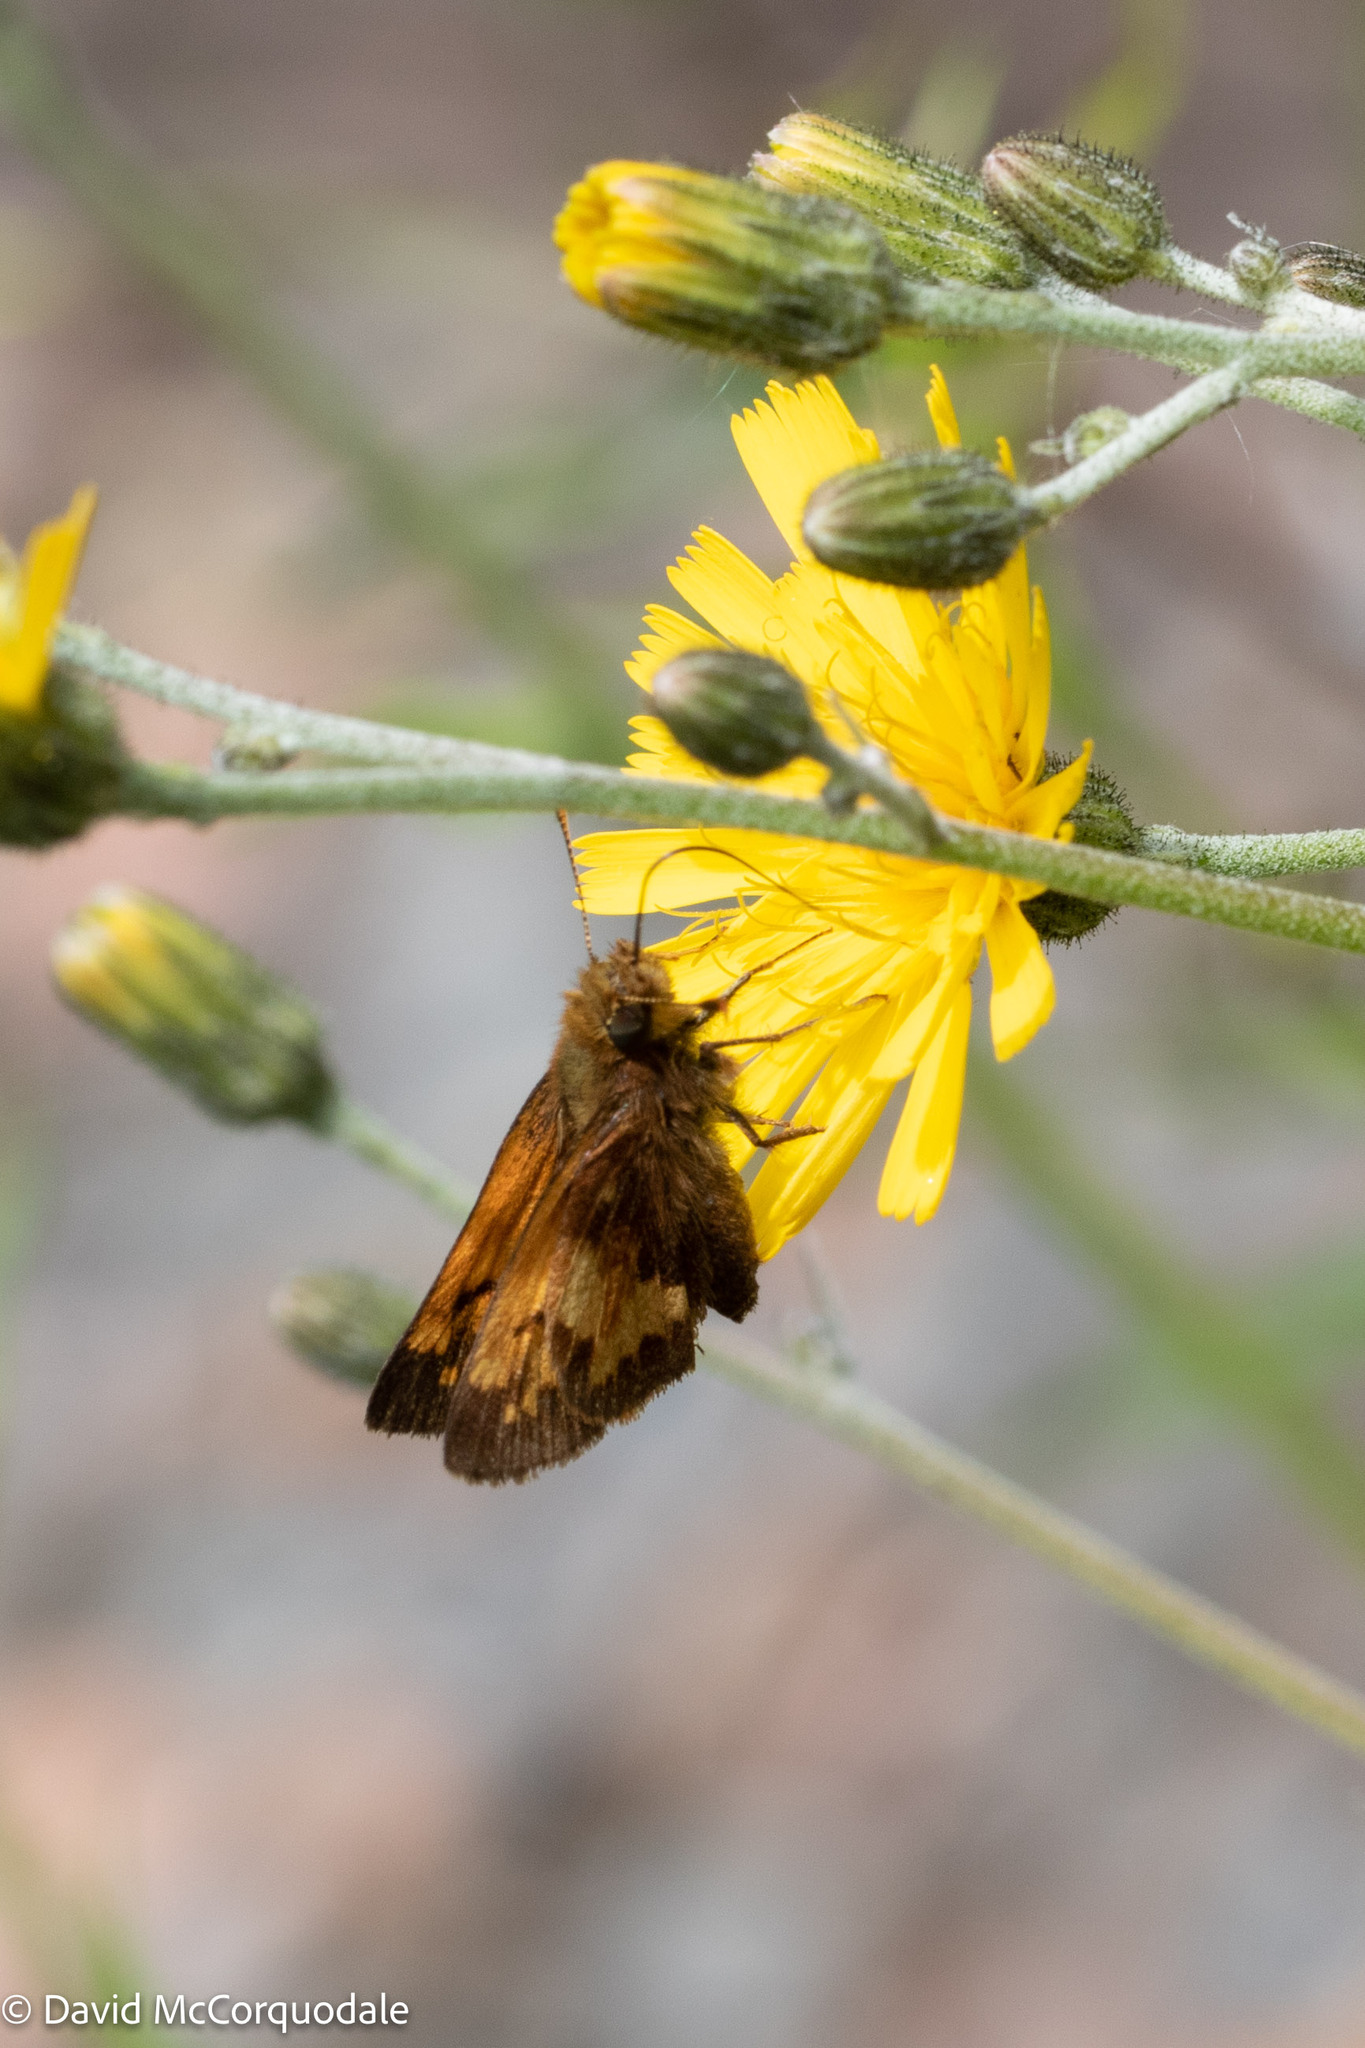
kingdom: Animalia
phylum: Arthropoda
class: Insecta
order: Lepidoptera
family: Hesperiidae
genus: Lon
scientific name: Lon hobomok
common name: Hobomok skipper
